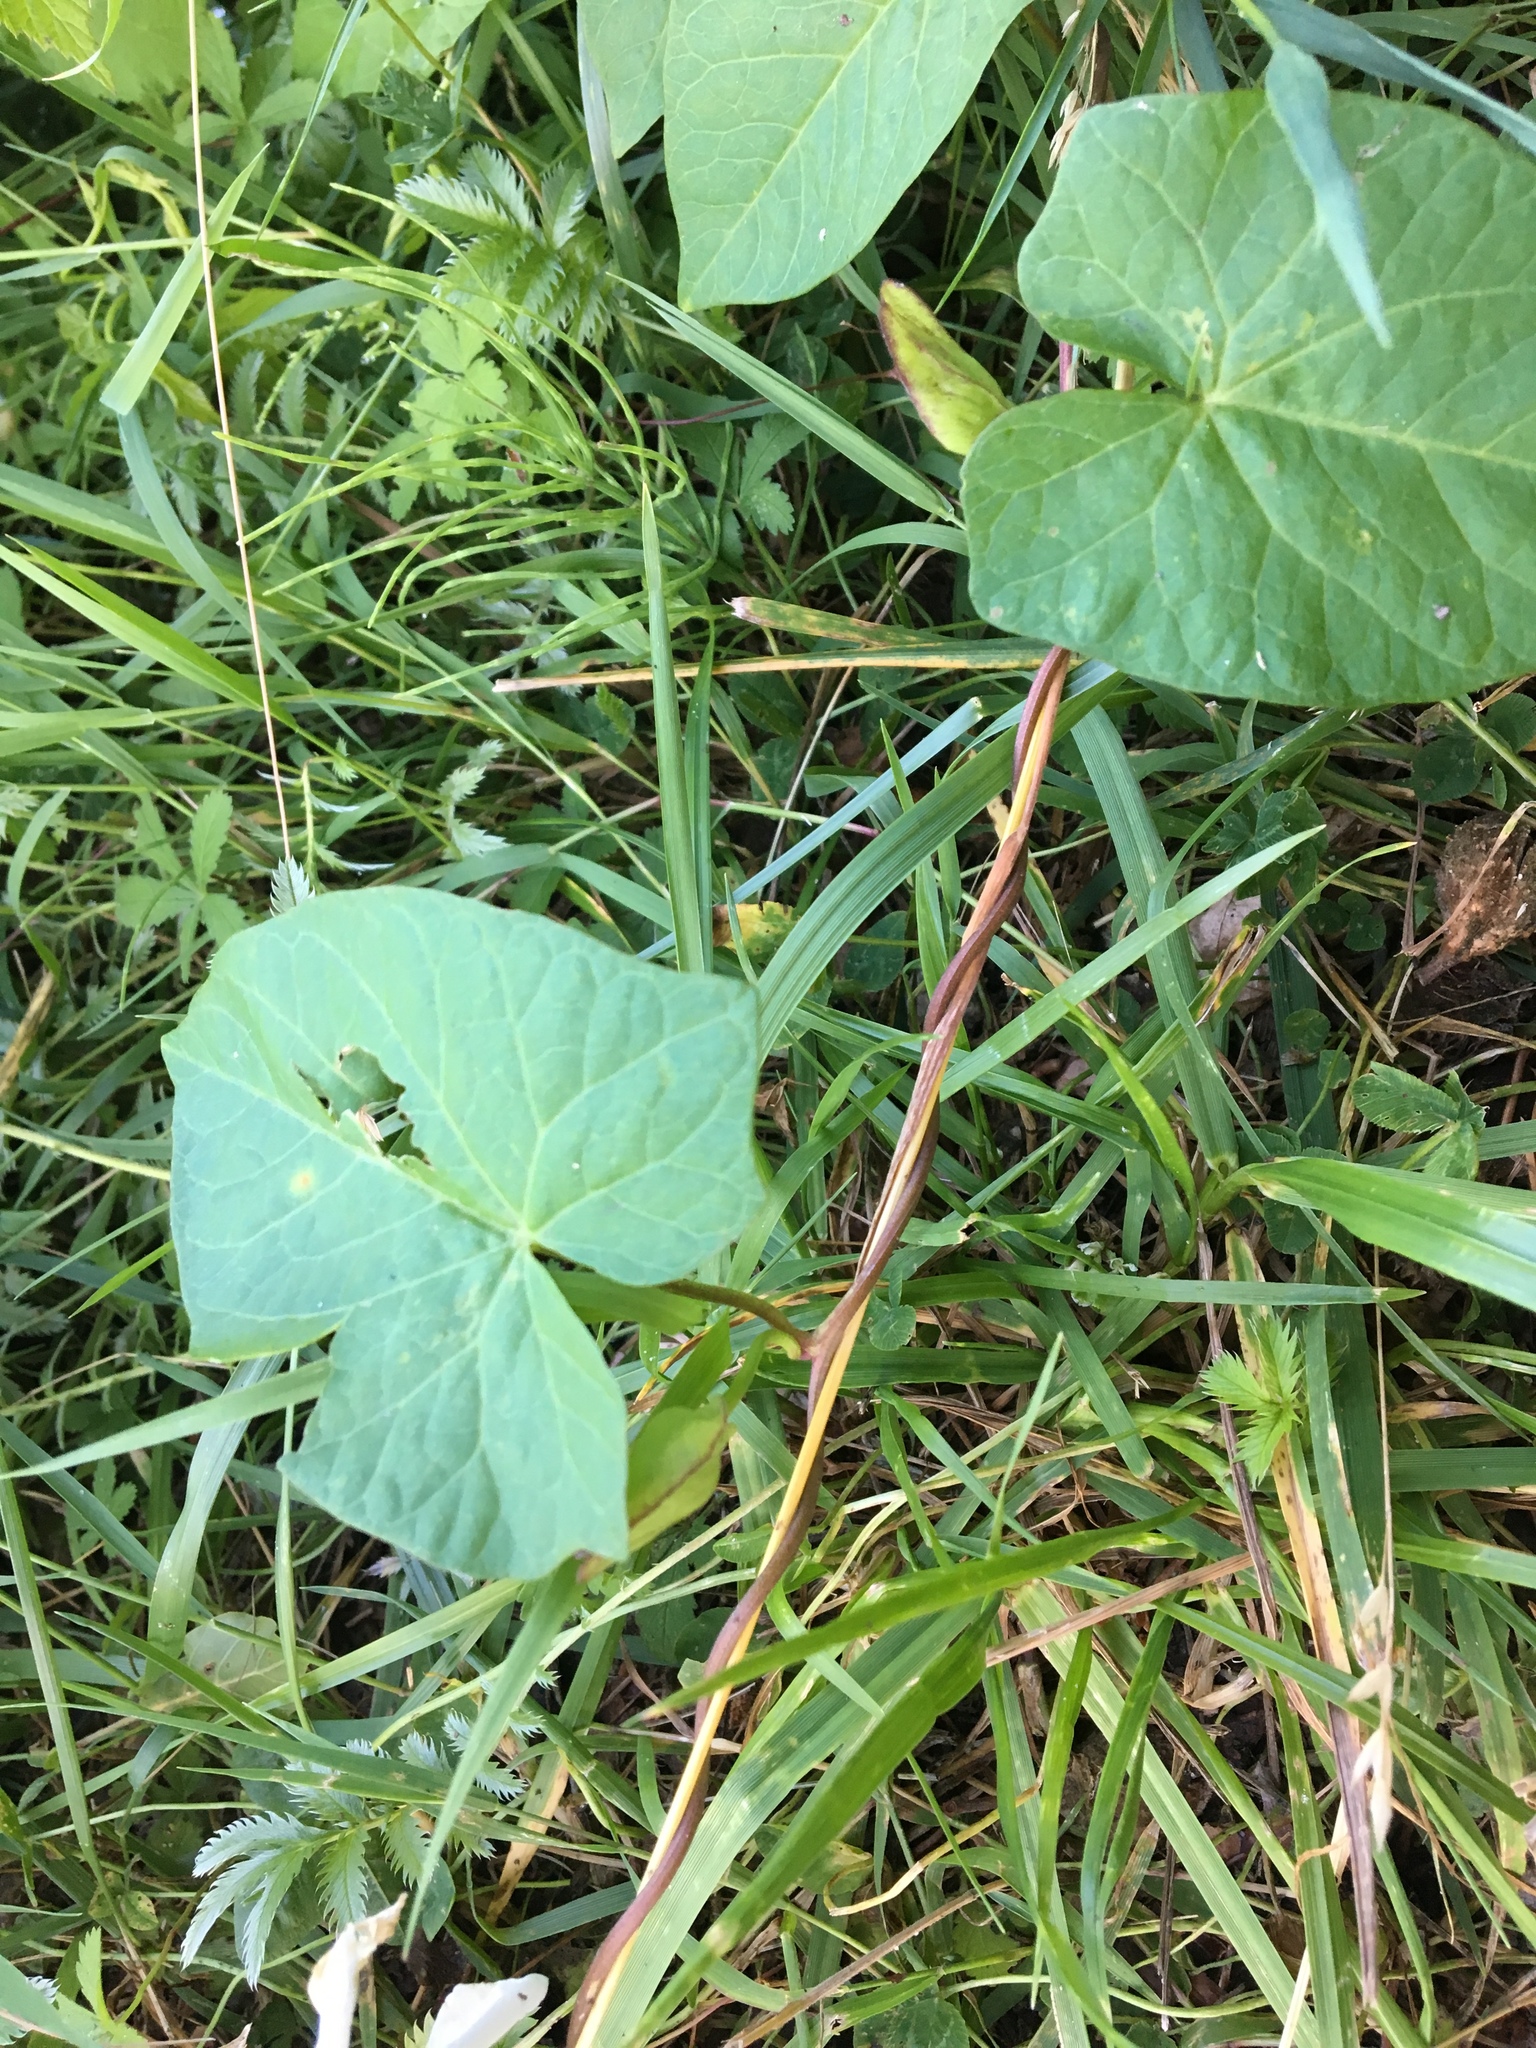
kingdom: Plantae
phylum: Tracheophyta
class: Magnoliopsida
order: Solanales
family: Convolvulaceae
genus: Calystegia
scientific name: Calystegia
